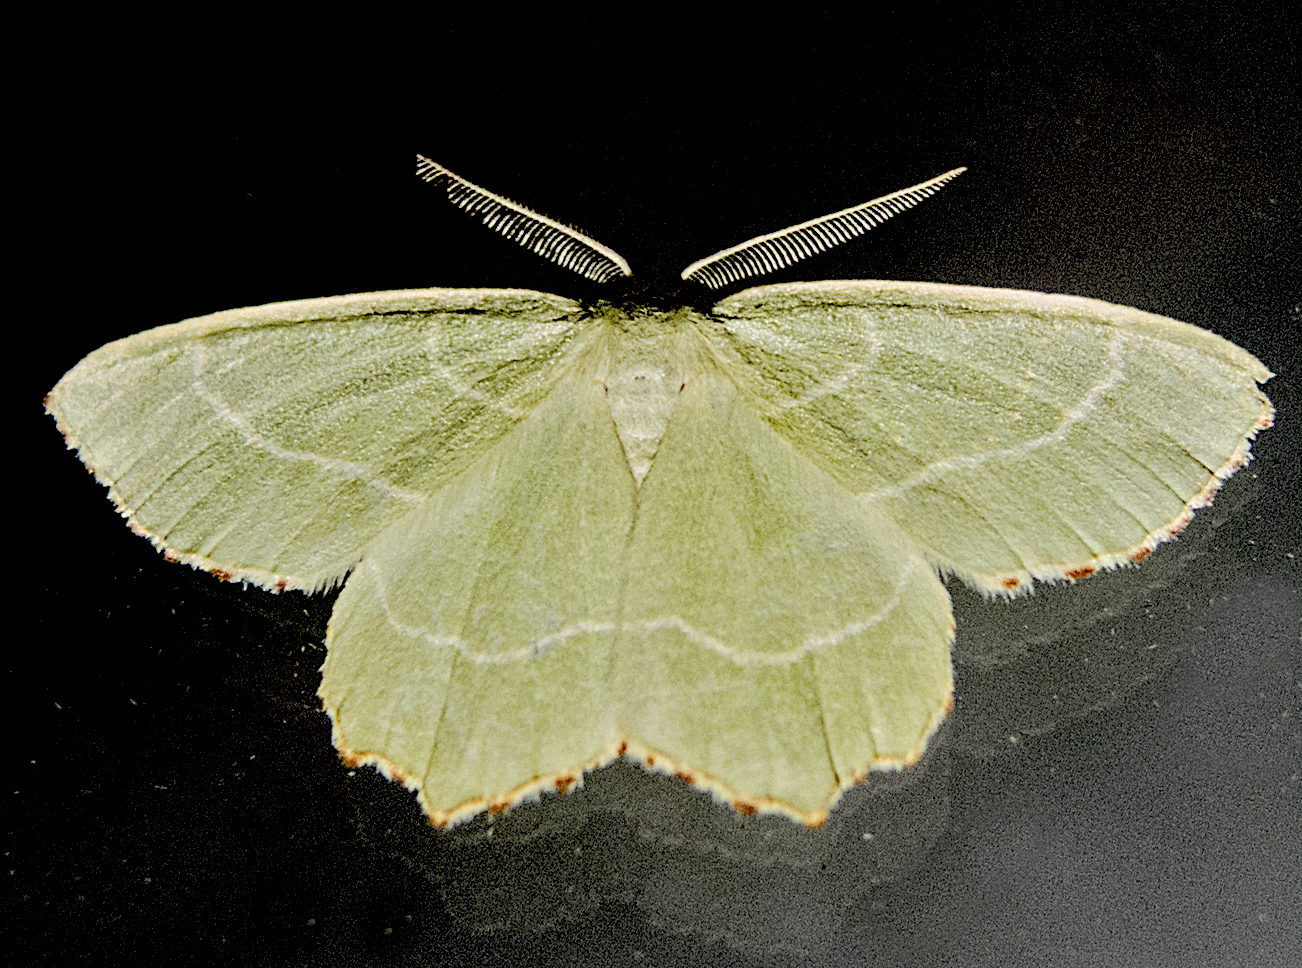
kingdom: Animalia
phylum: Arthropoda
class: Insecta
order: Lepidoptera
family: Geometridae
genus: Thalera
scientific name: Thalera fimbrialis
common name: Sussex emerald
